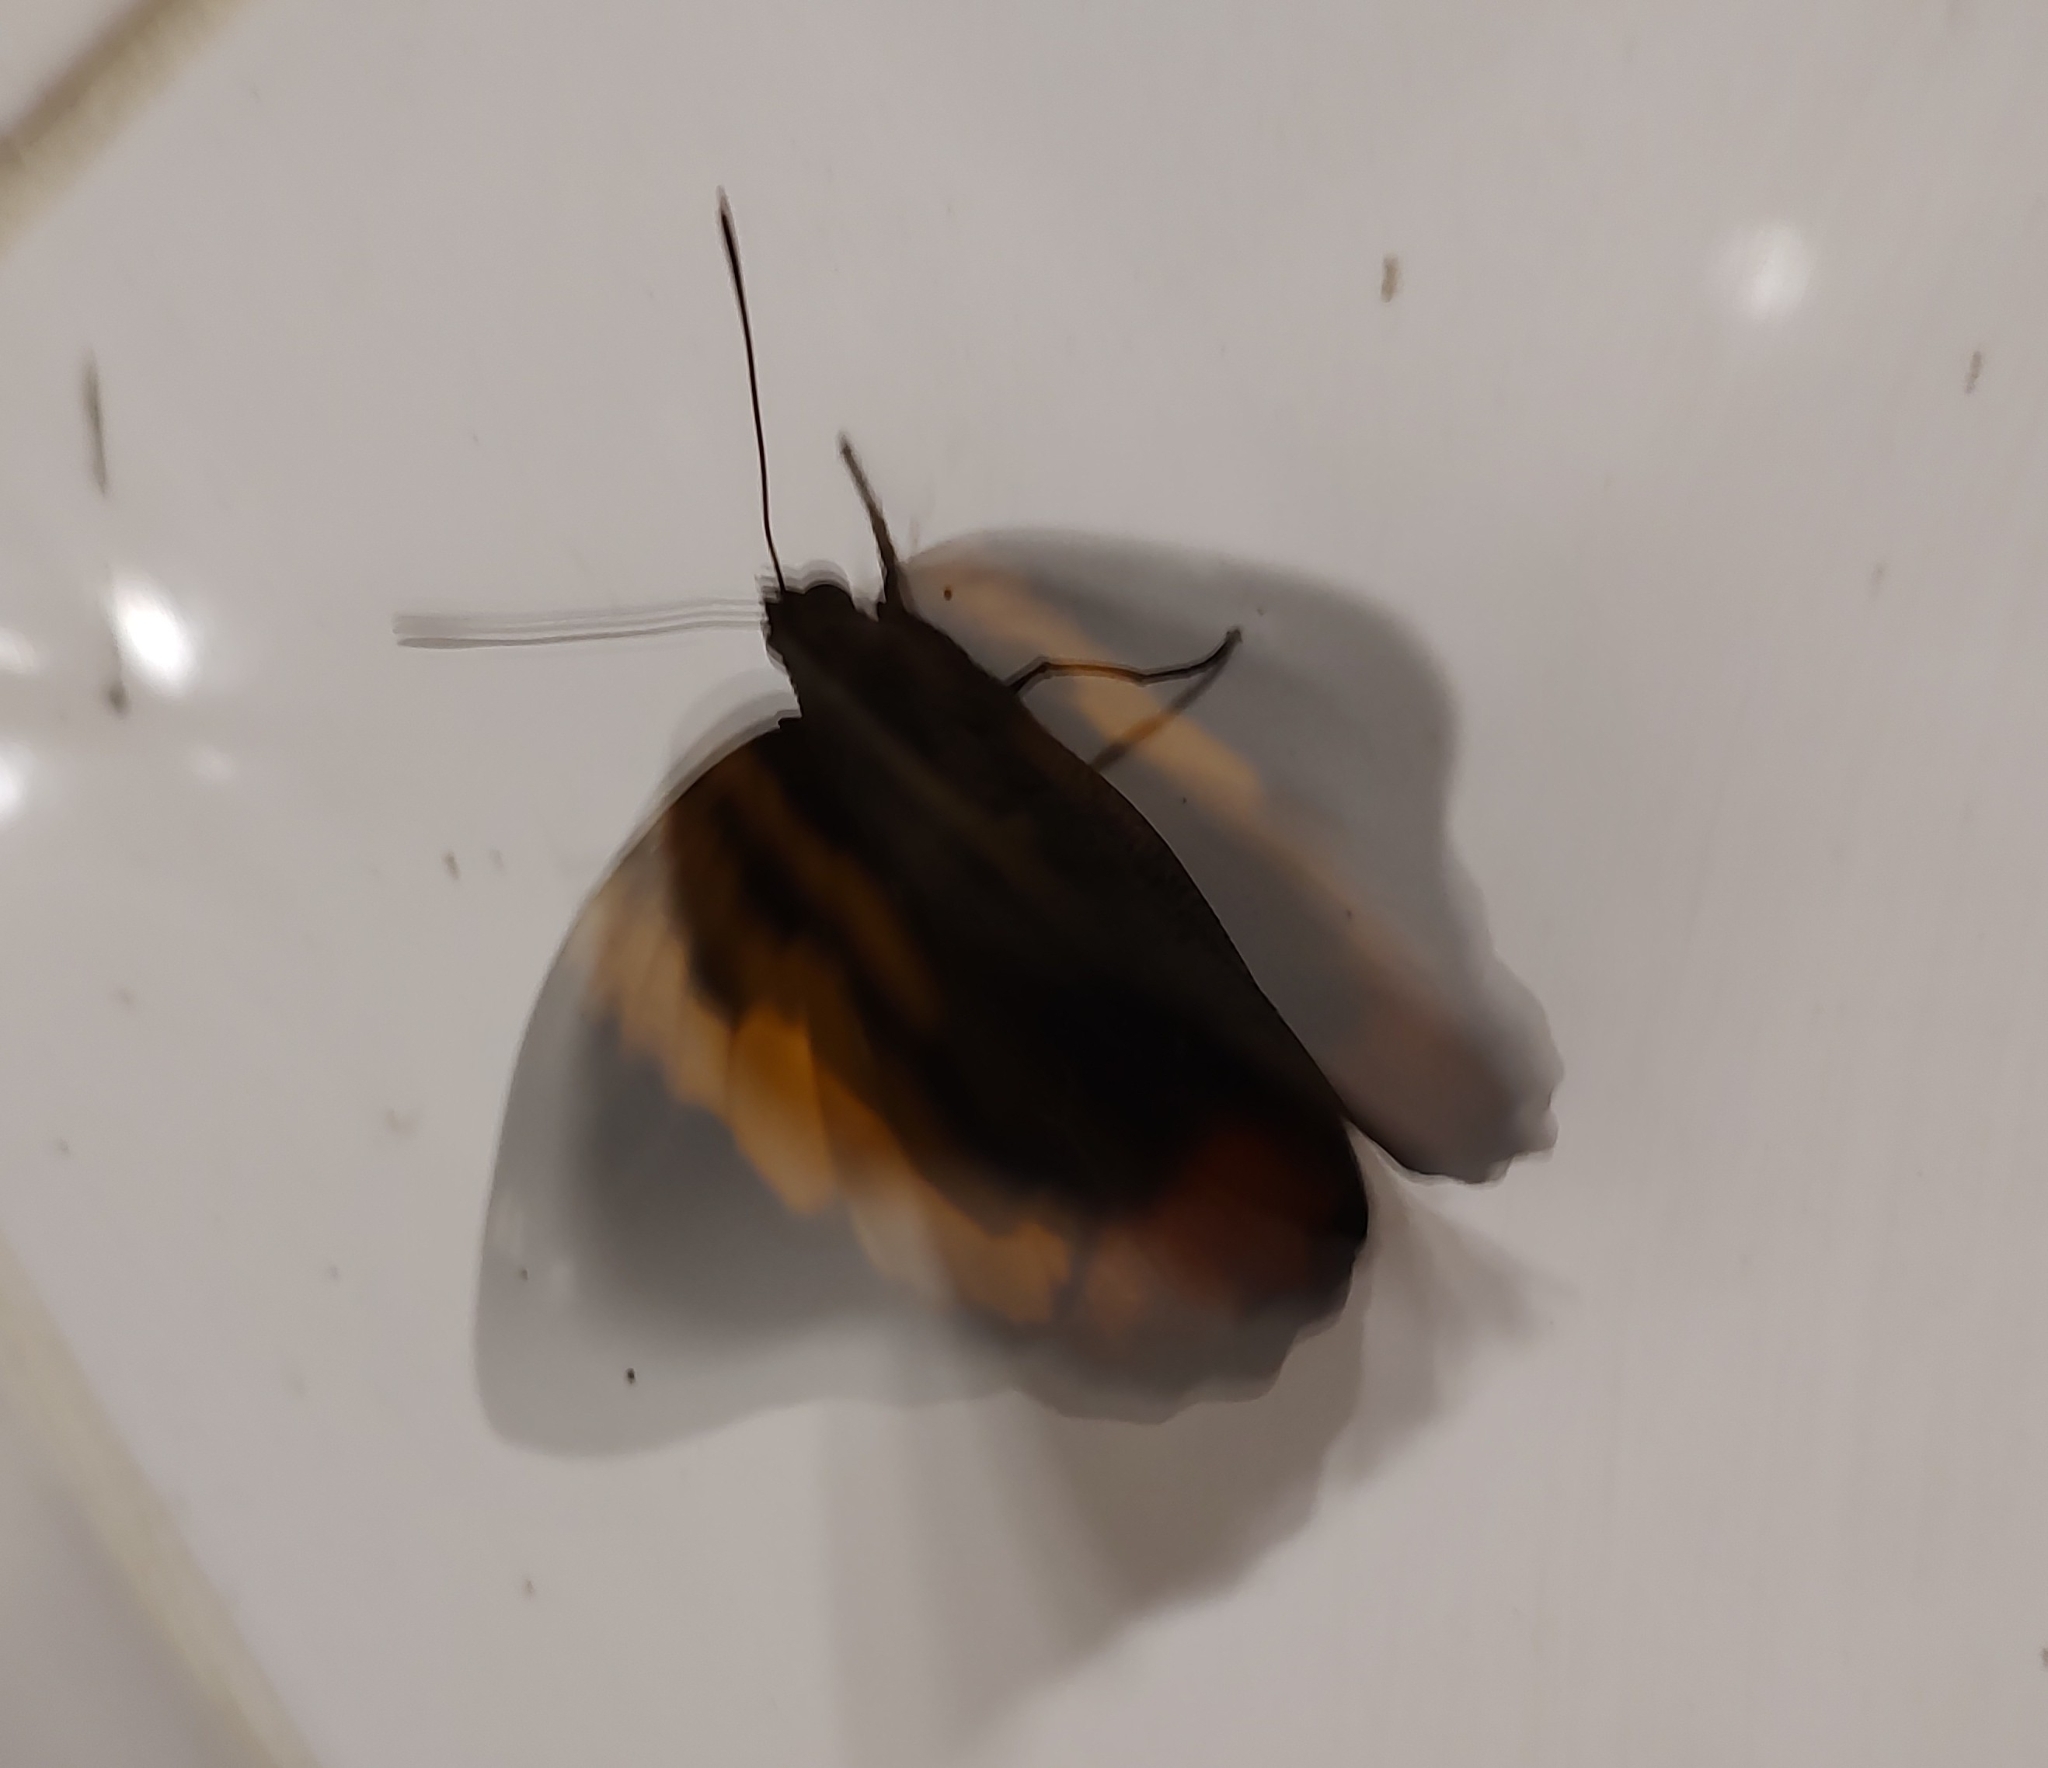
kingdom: Animalia
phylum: Arthropoda
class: Insecta
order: Lepidoptera
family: Nymphalidae
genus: Opsiphanes
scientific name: Opsiphanes invirae
